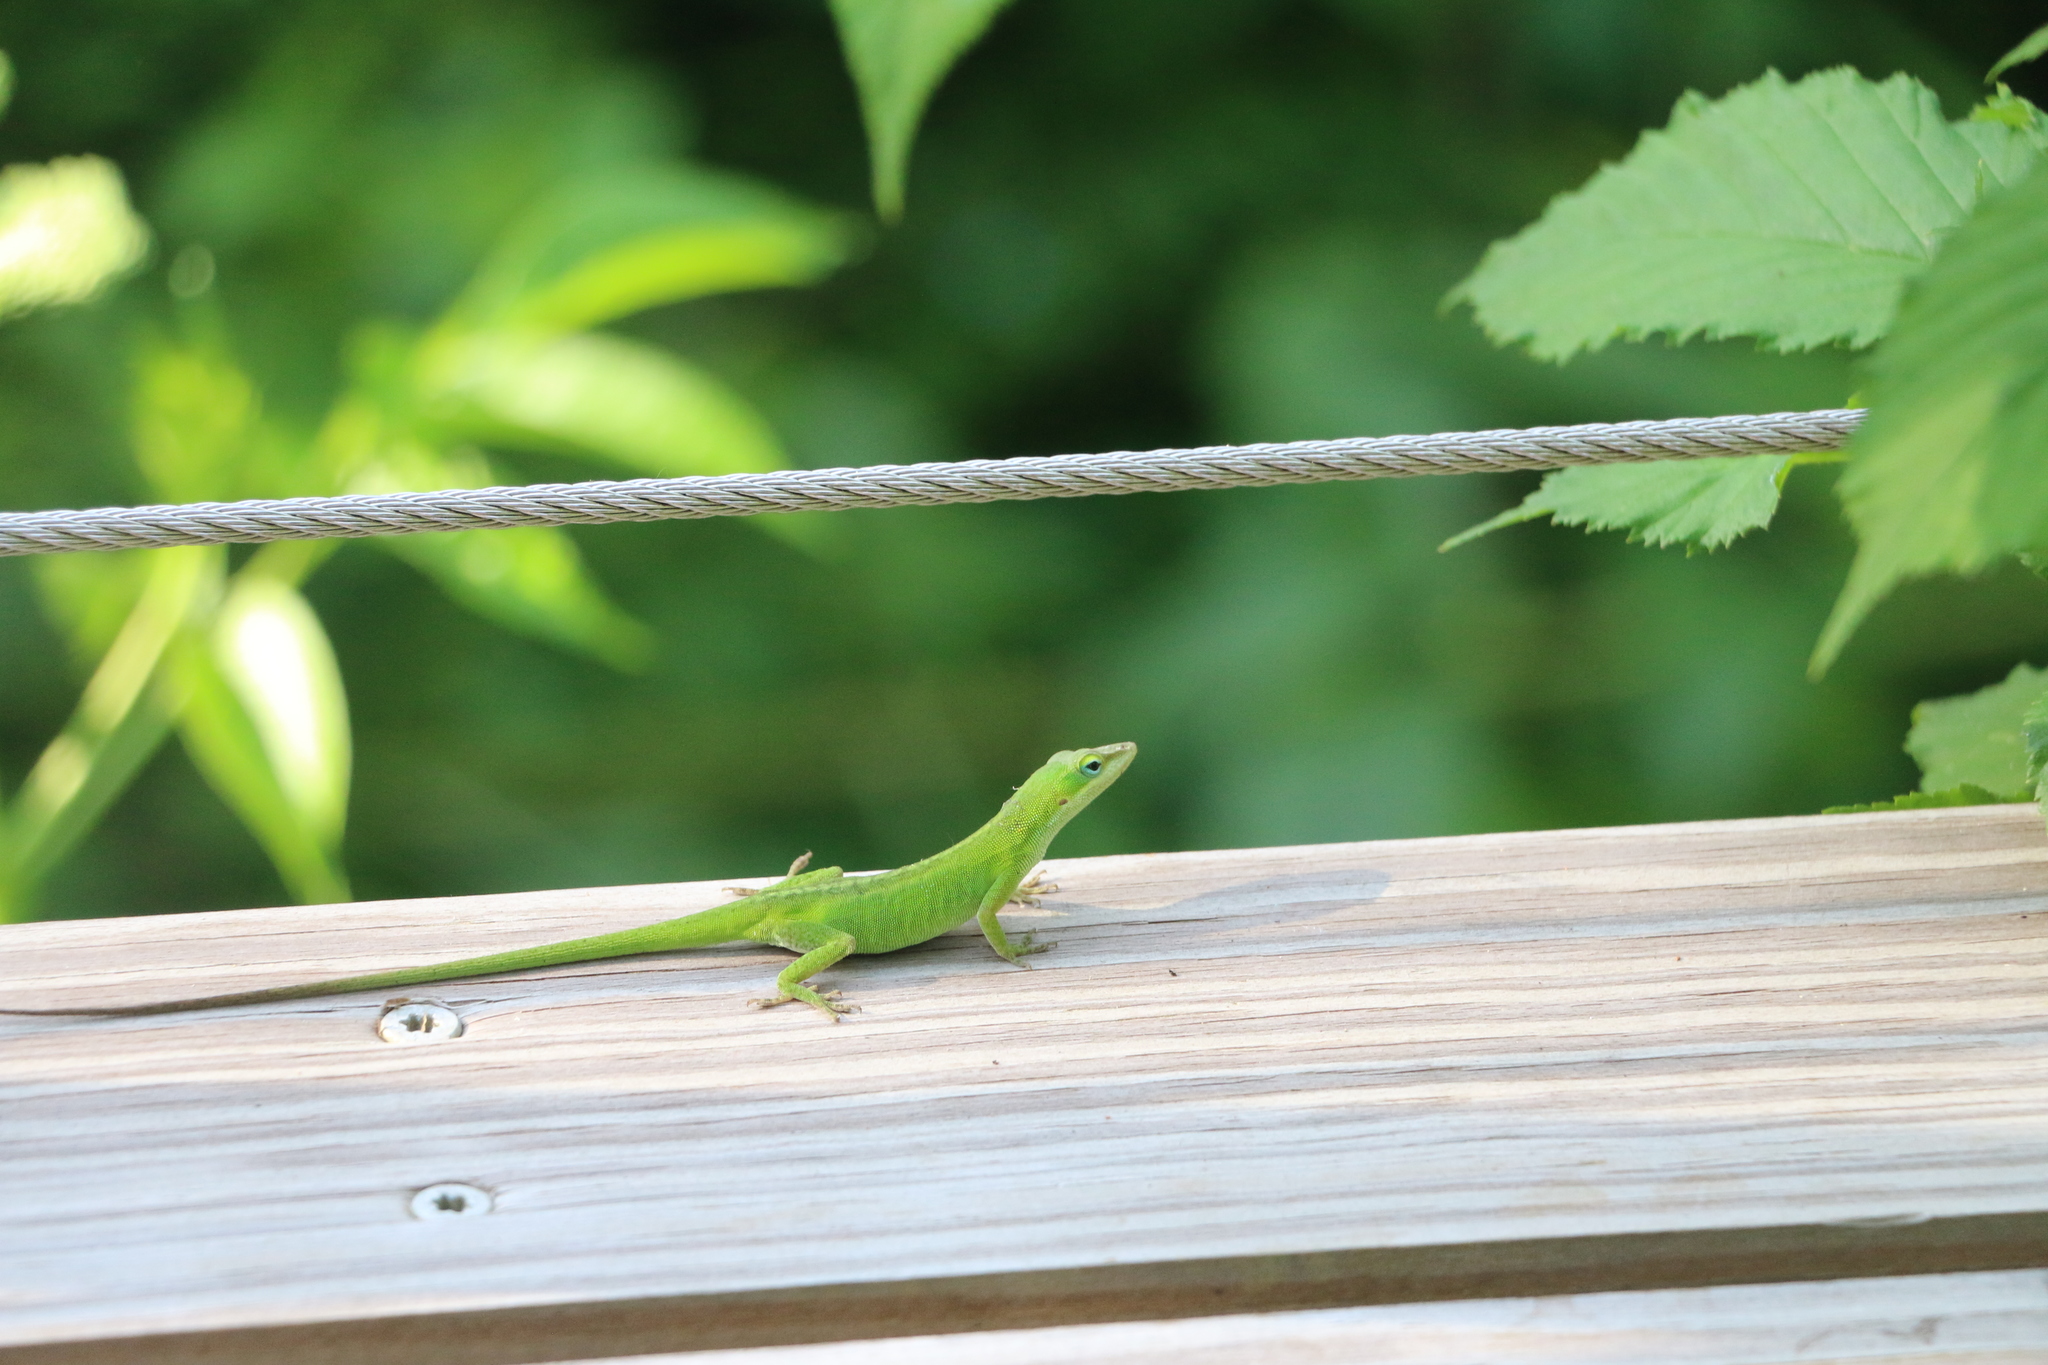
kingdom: Animalia
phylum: Chordata
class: Squamata
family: Dactyloidae
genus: Anolis
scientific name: Anolis carolinensis
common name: Green anole
